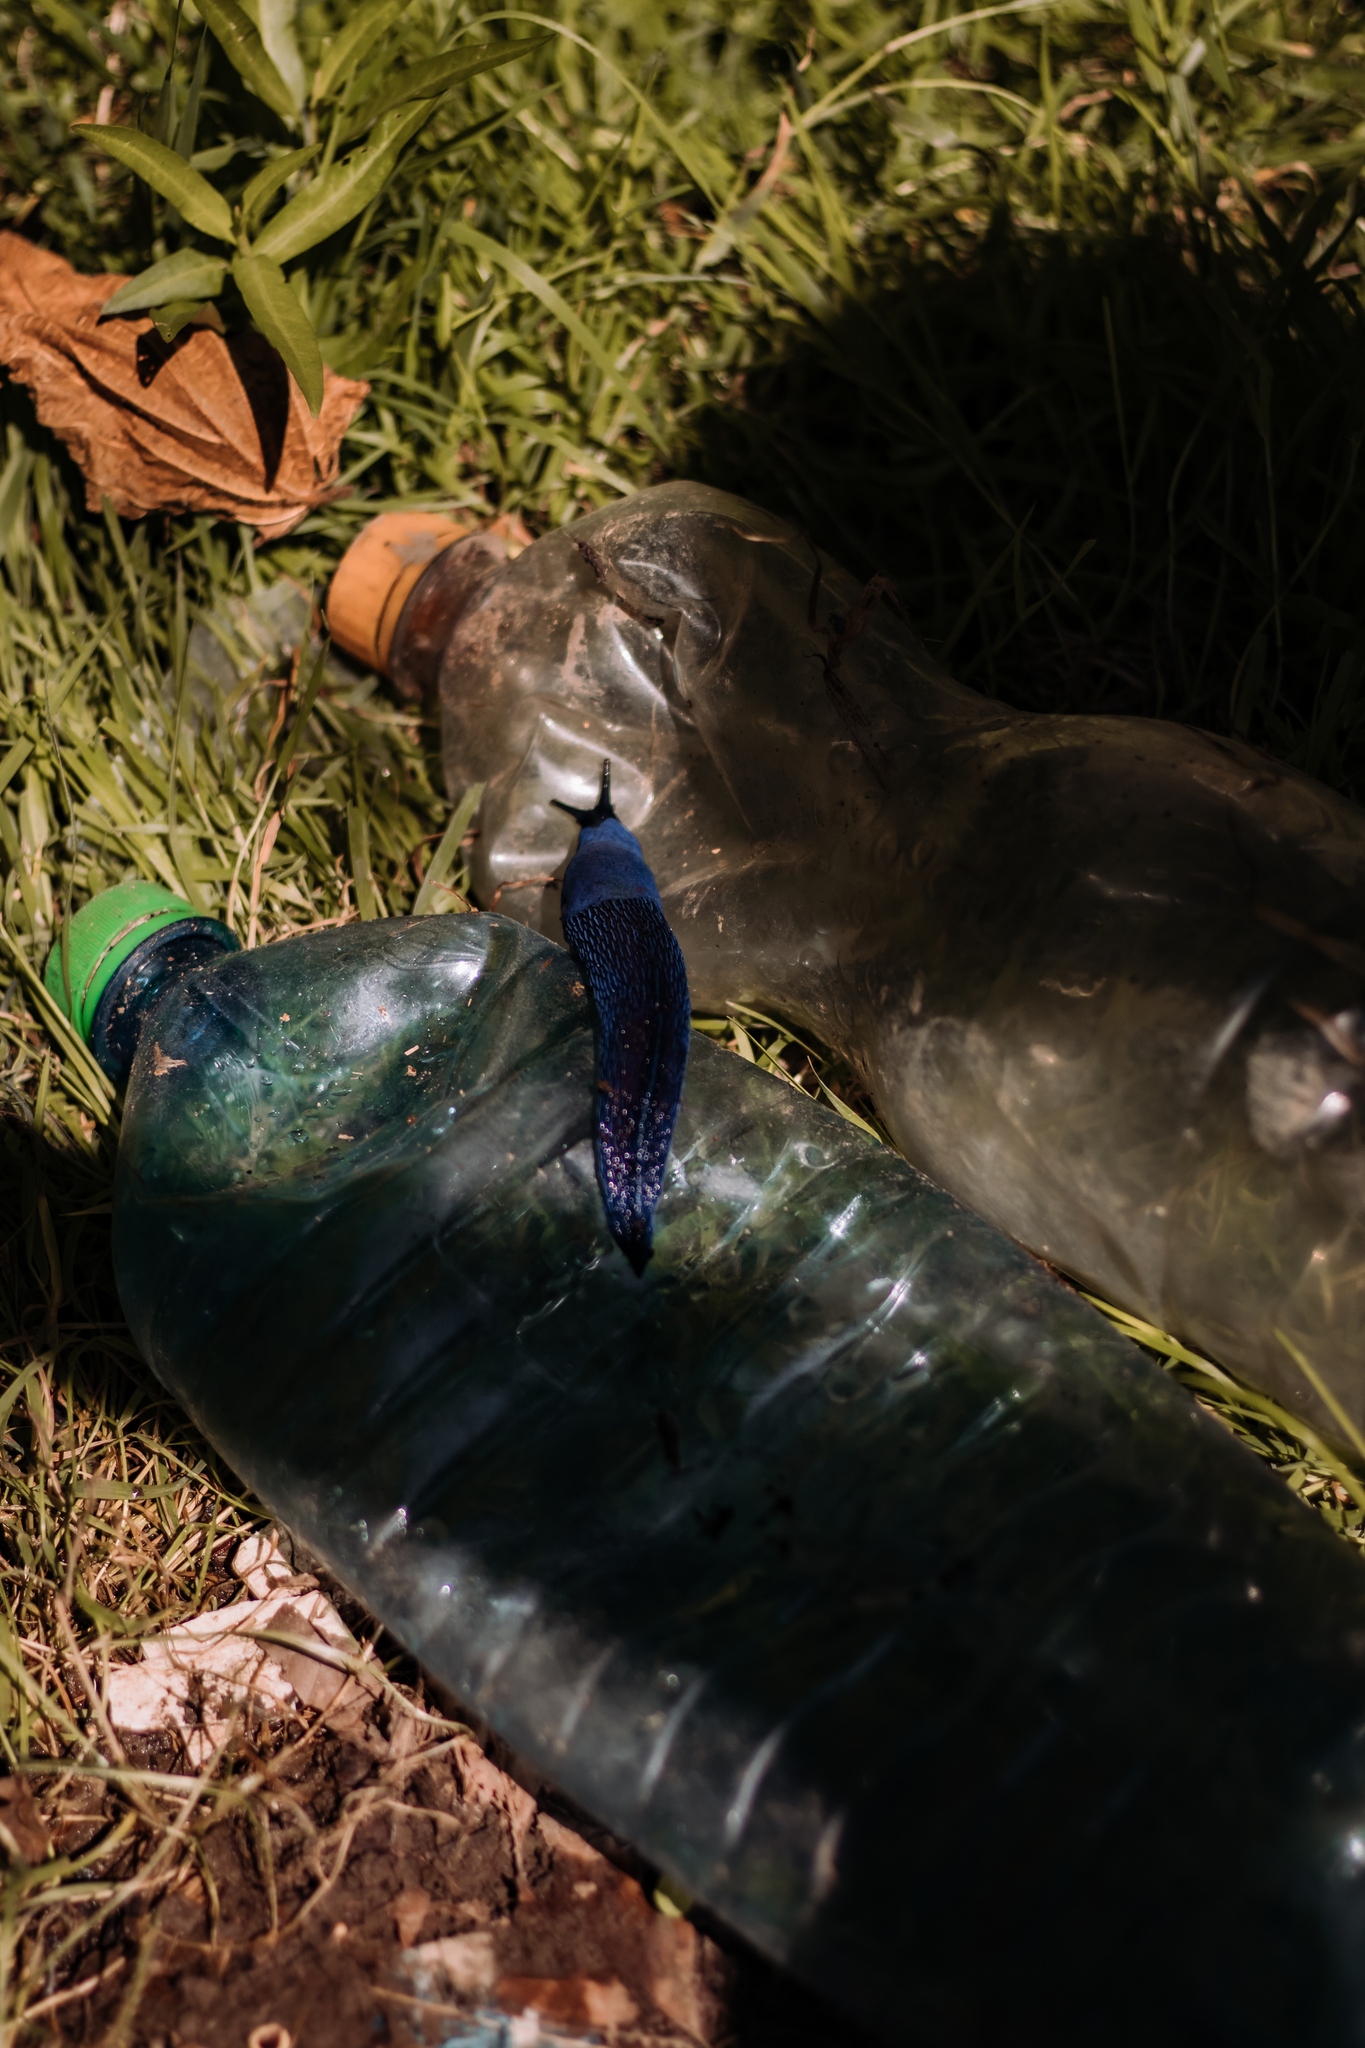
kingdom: Animalia
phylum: Mollusca
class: Gastropoda
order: Stylommatophora
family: Limacidae
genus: Bielzia
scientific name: Bielzia coerulans
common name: Carpathian blue slug
